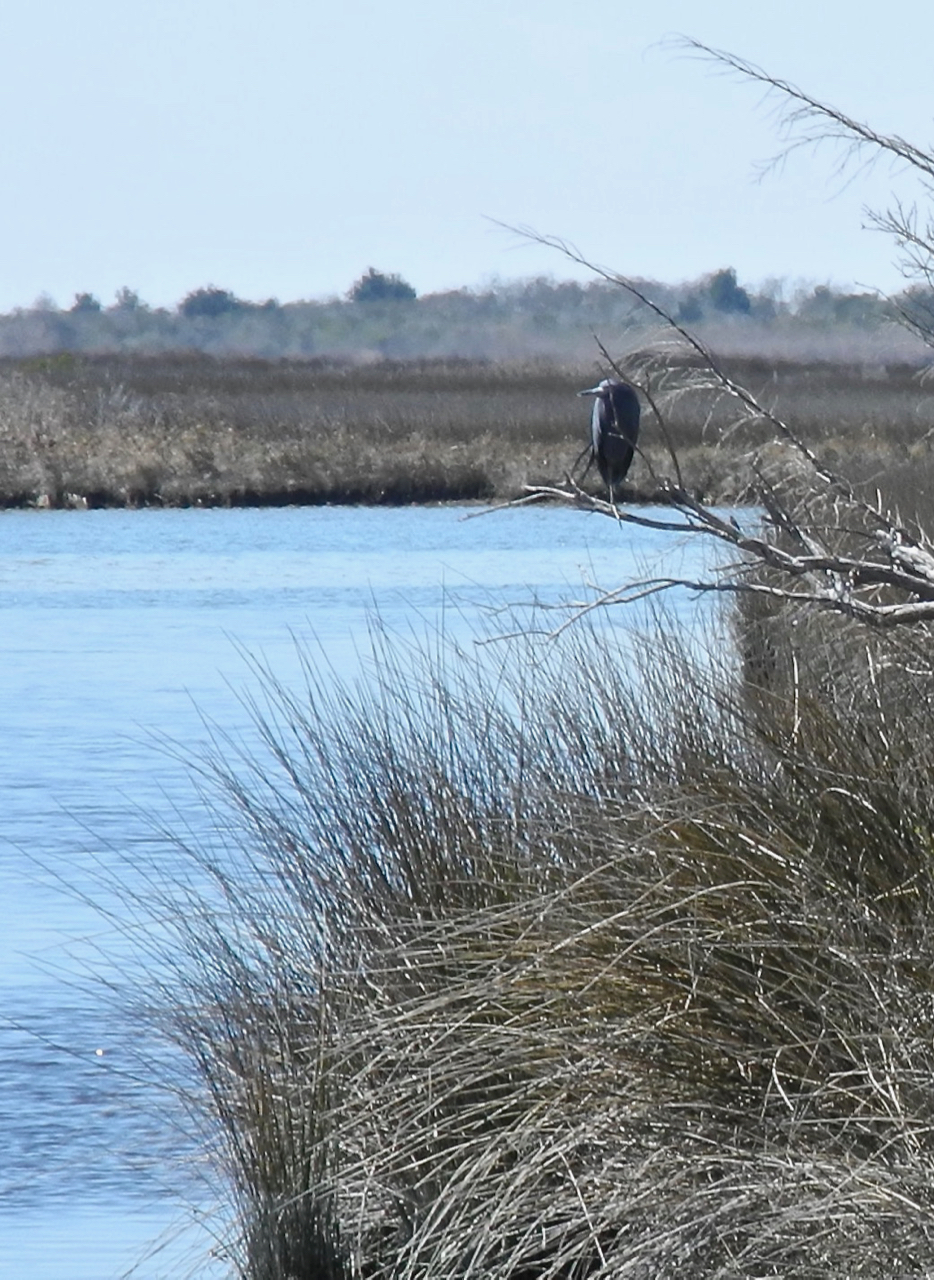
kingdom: Animalia
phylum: Chordata
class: Aves
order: Pelecaniformes
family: Ardeidae
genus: Egretta
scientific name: Egretta caerulea
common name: Little blue heron
